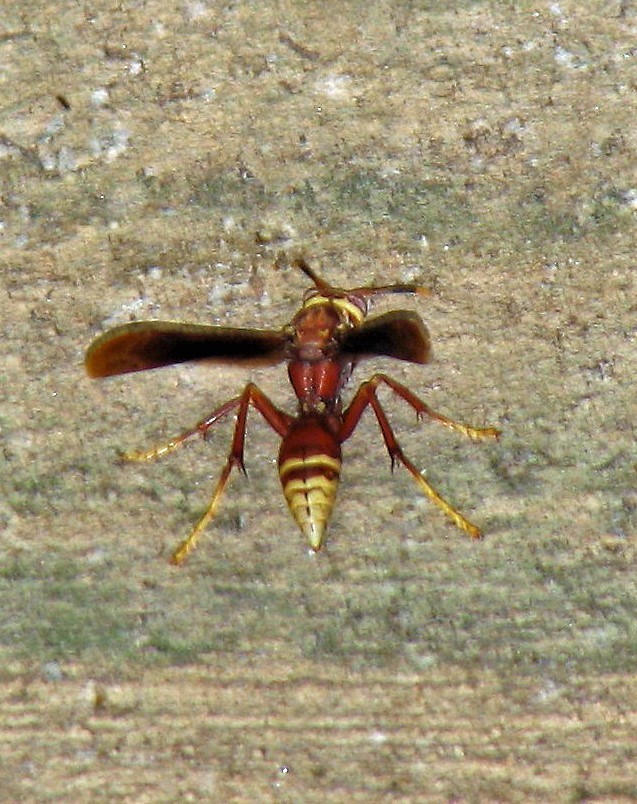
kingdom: Animalia
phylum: Arthropoda
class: Insecta
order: Hymenoptera
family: Eumenidae
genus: Polistes
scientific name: Polistes cavapyta
